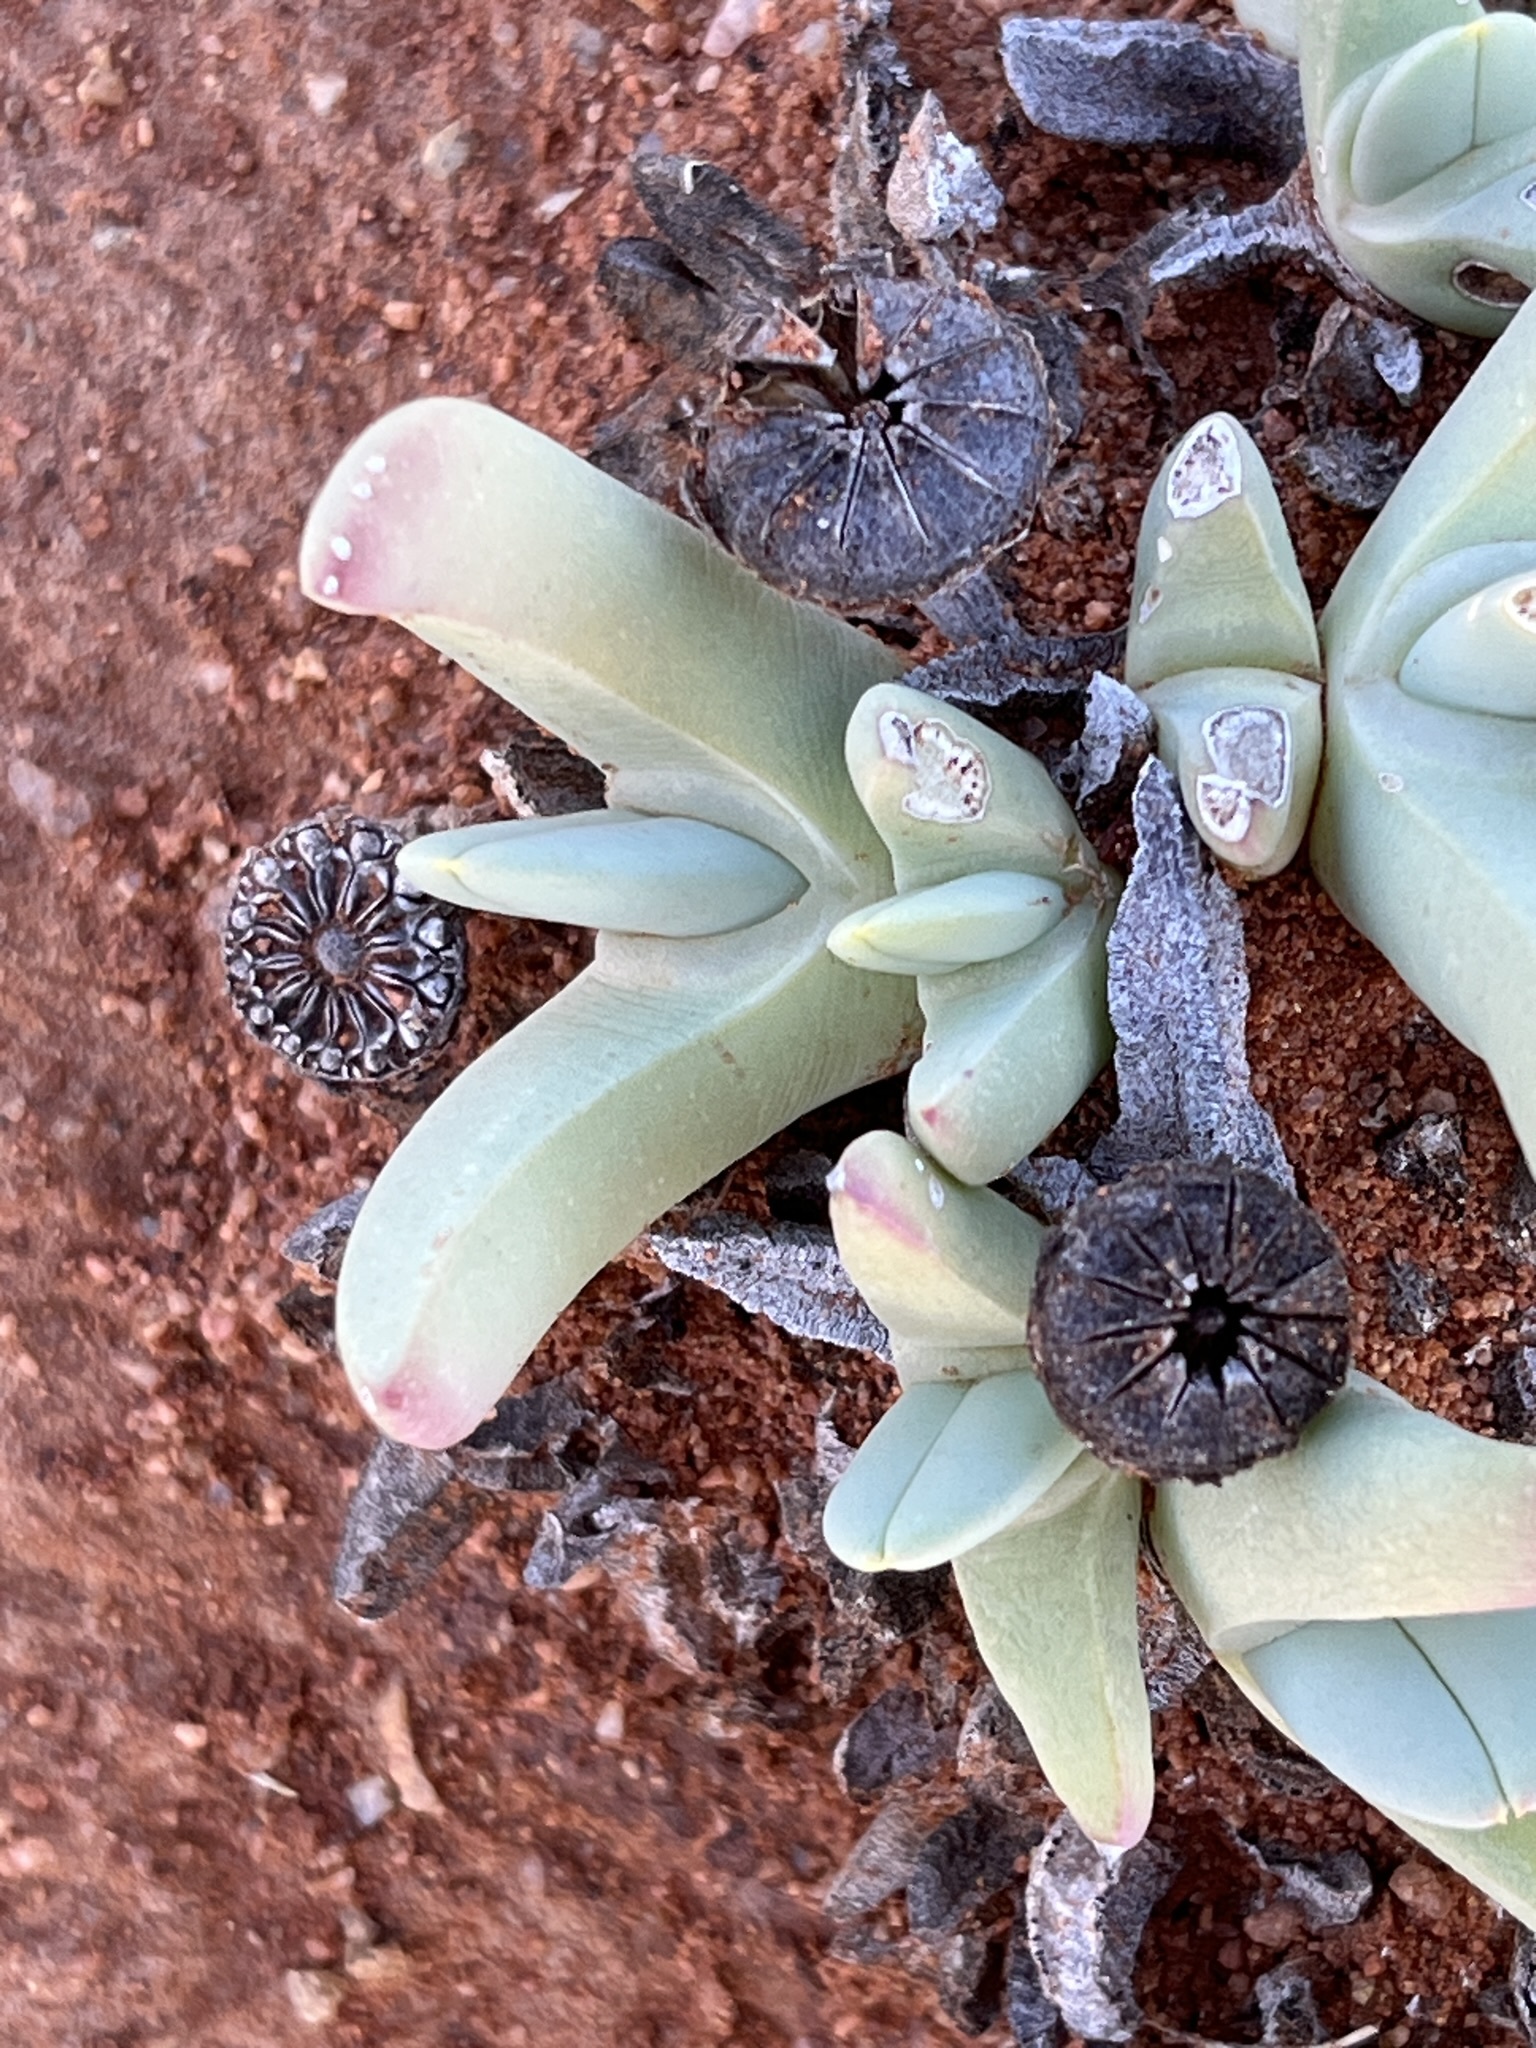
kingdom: Plantae
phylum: Tracheophyta
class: Magnoliopsida
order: Caryophyllales
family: Aizoaceae
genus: Cheiridopsis
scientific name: Cheiridopsis robusta
